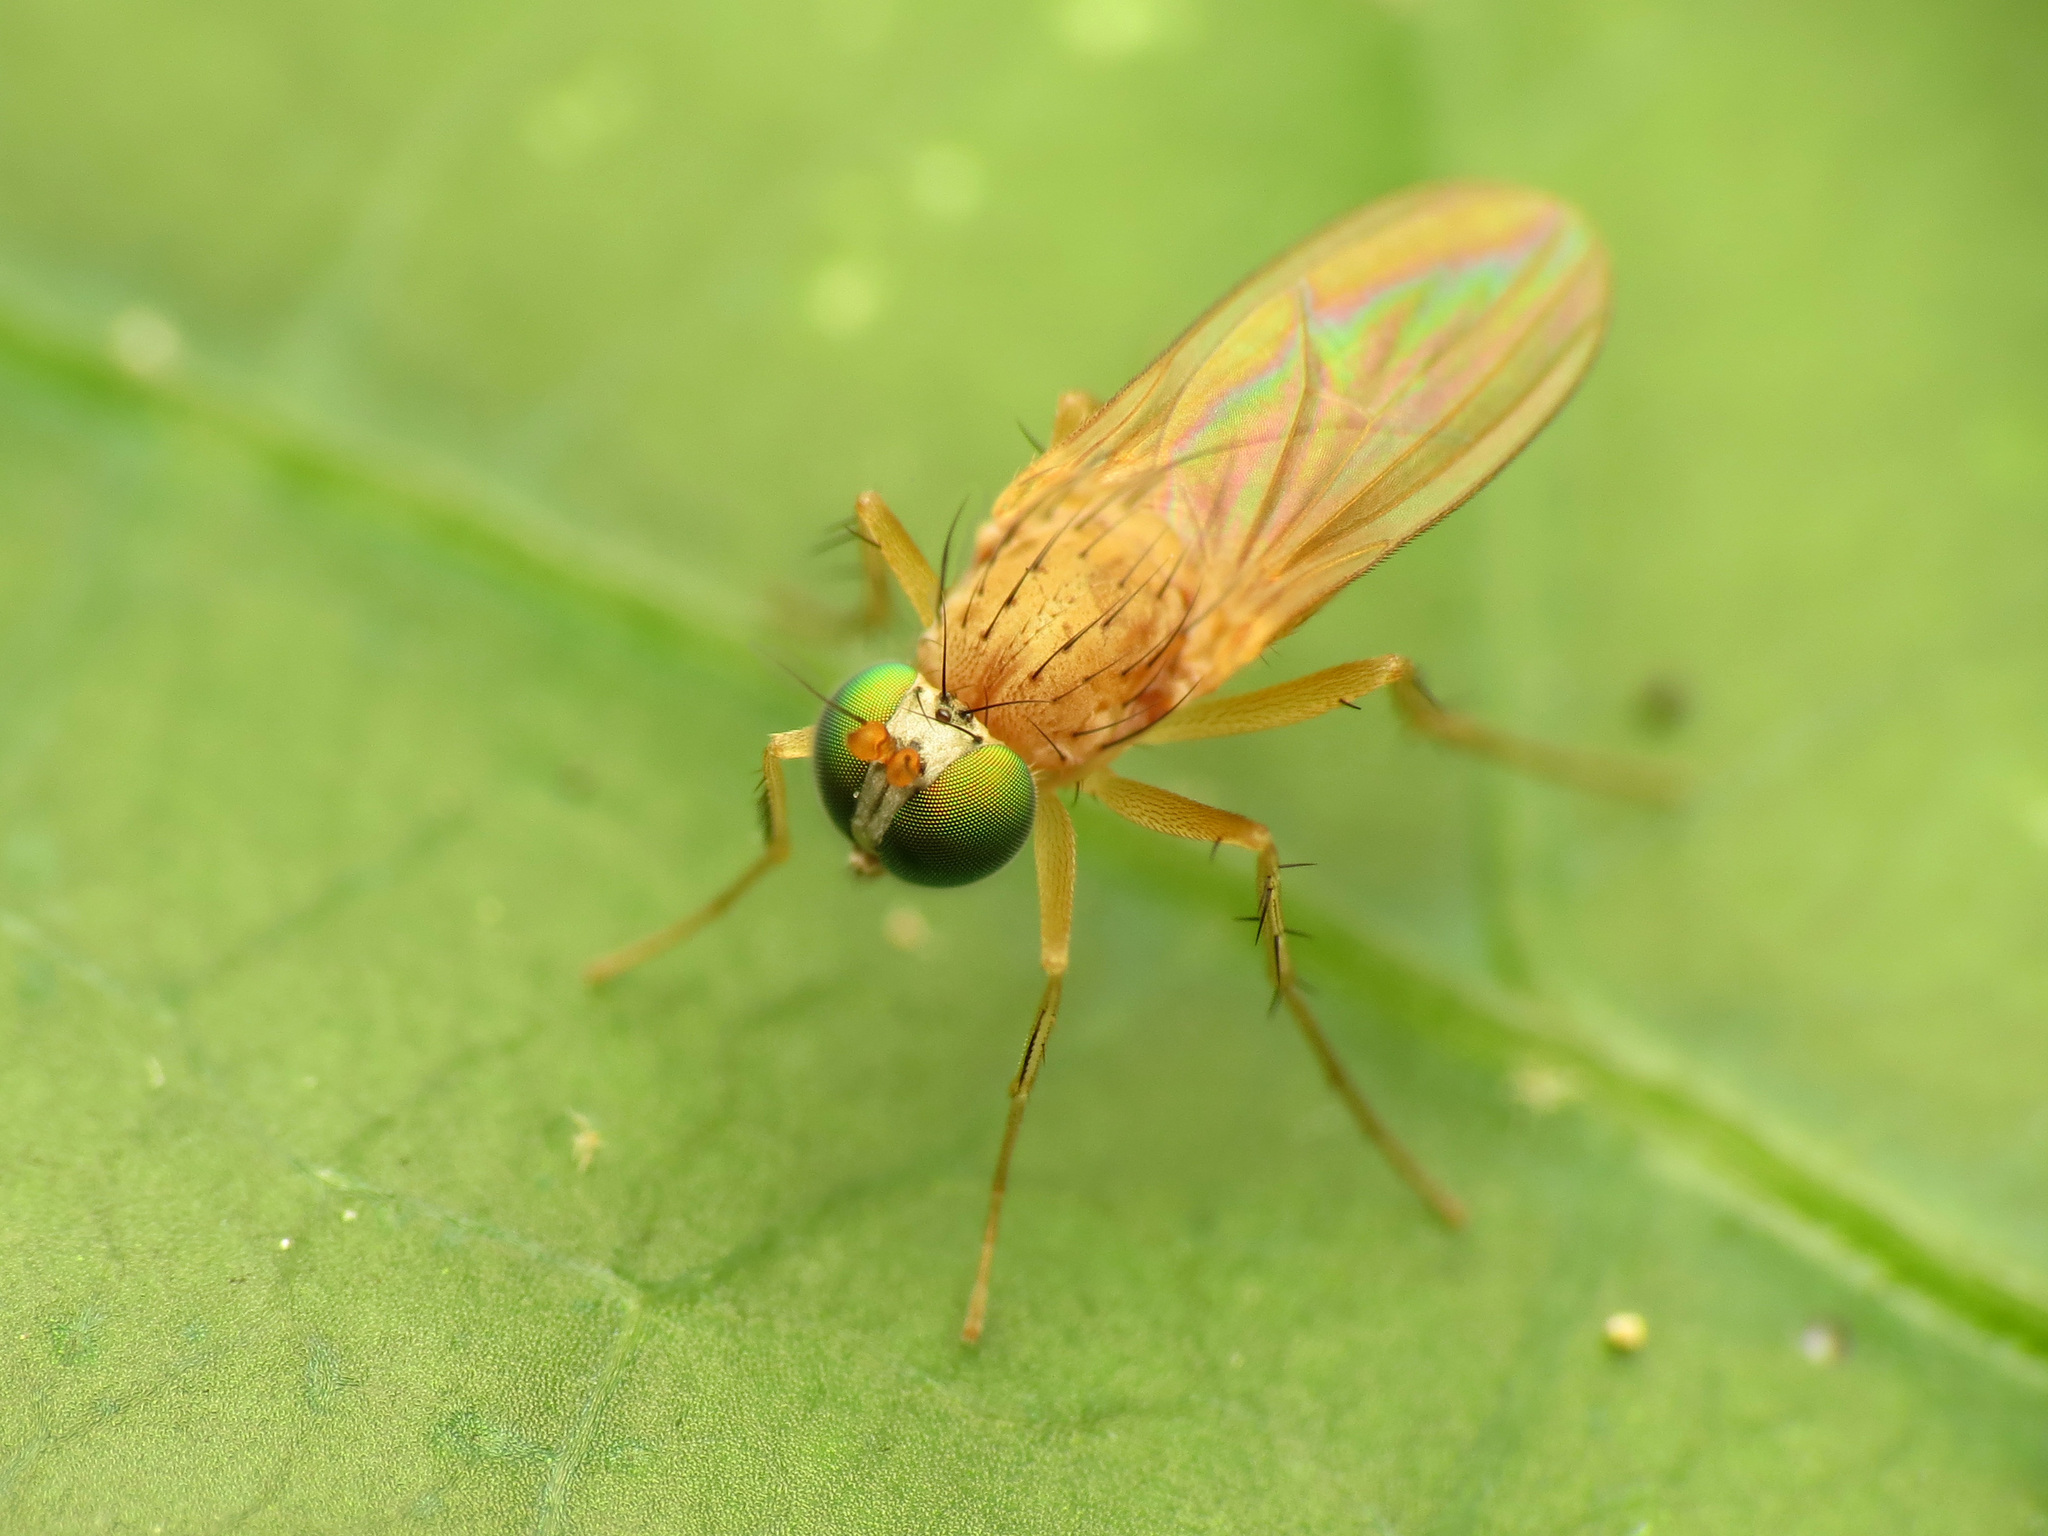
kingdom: Animalia
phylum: Arthropoda
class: Insecta
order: Diptera
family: Dolichopodidae
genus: Gymnopternus
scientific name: Gymnopternus flavus
